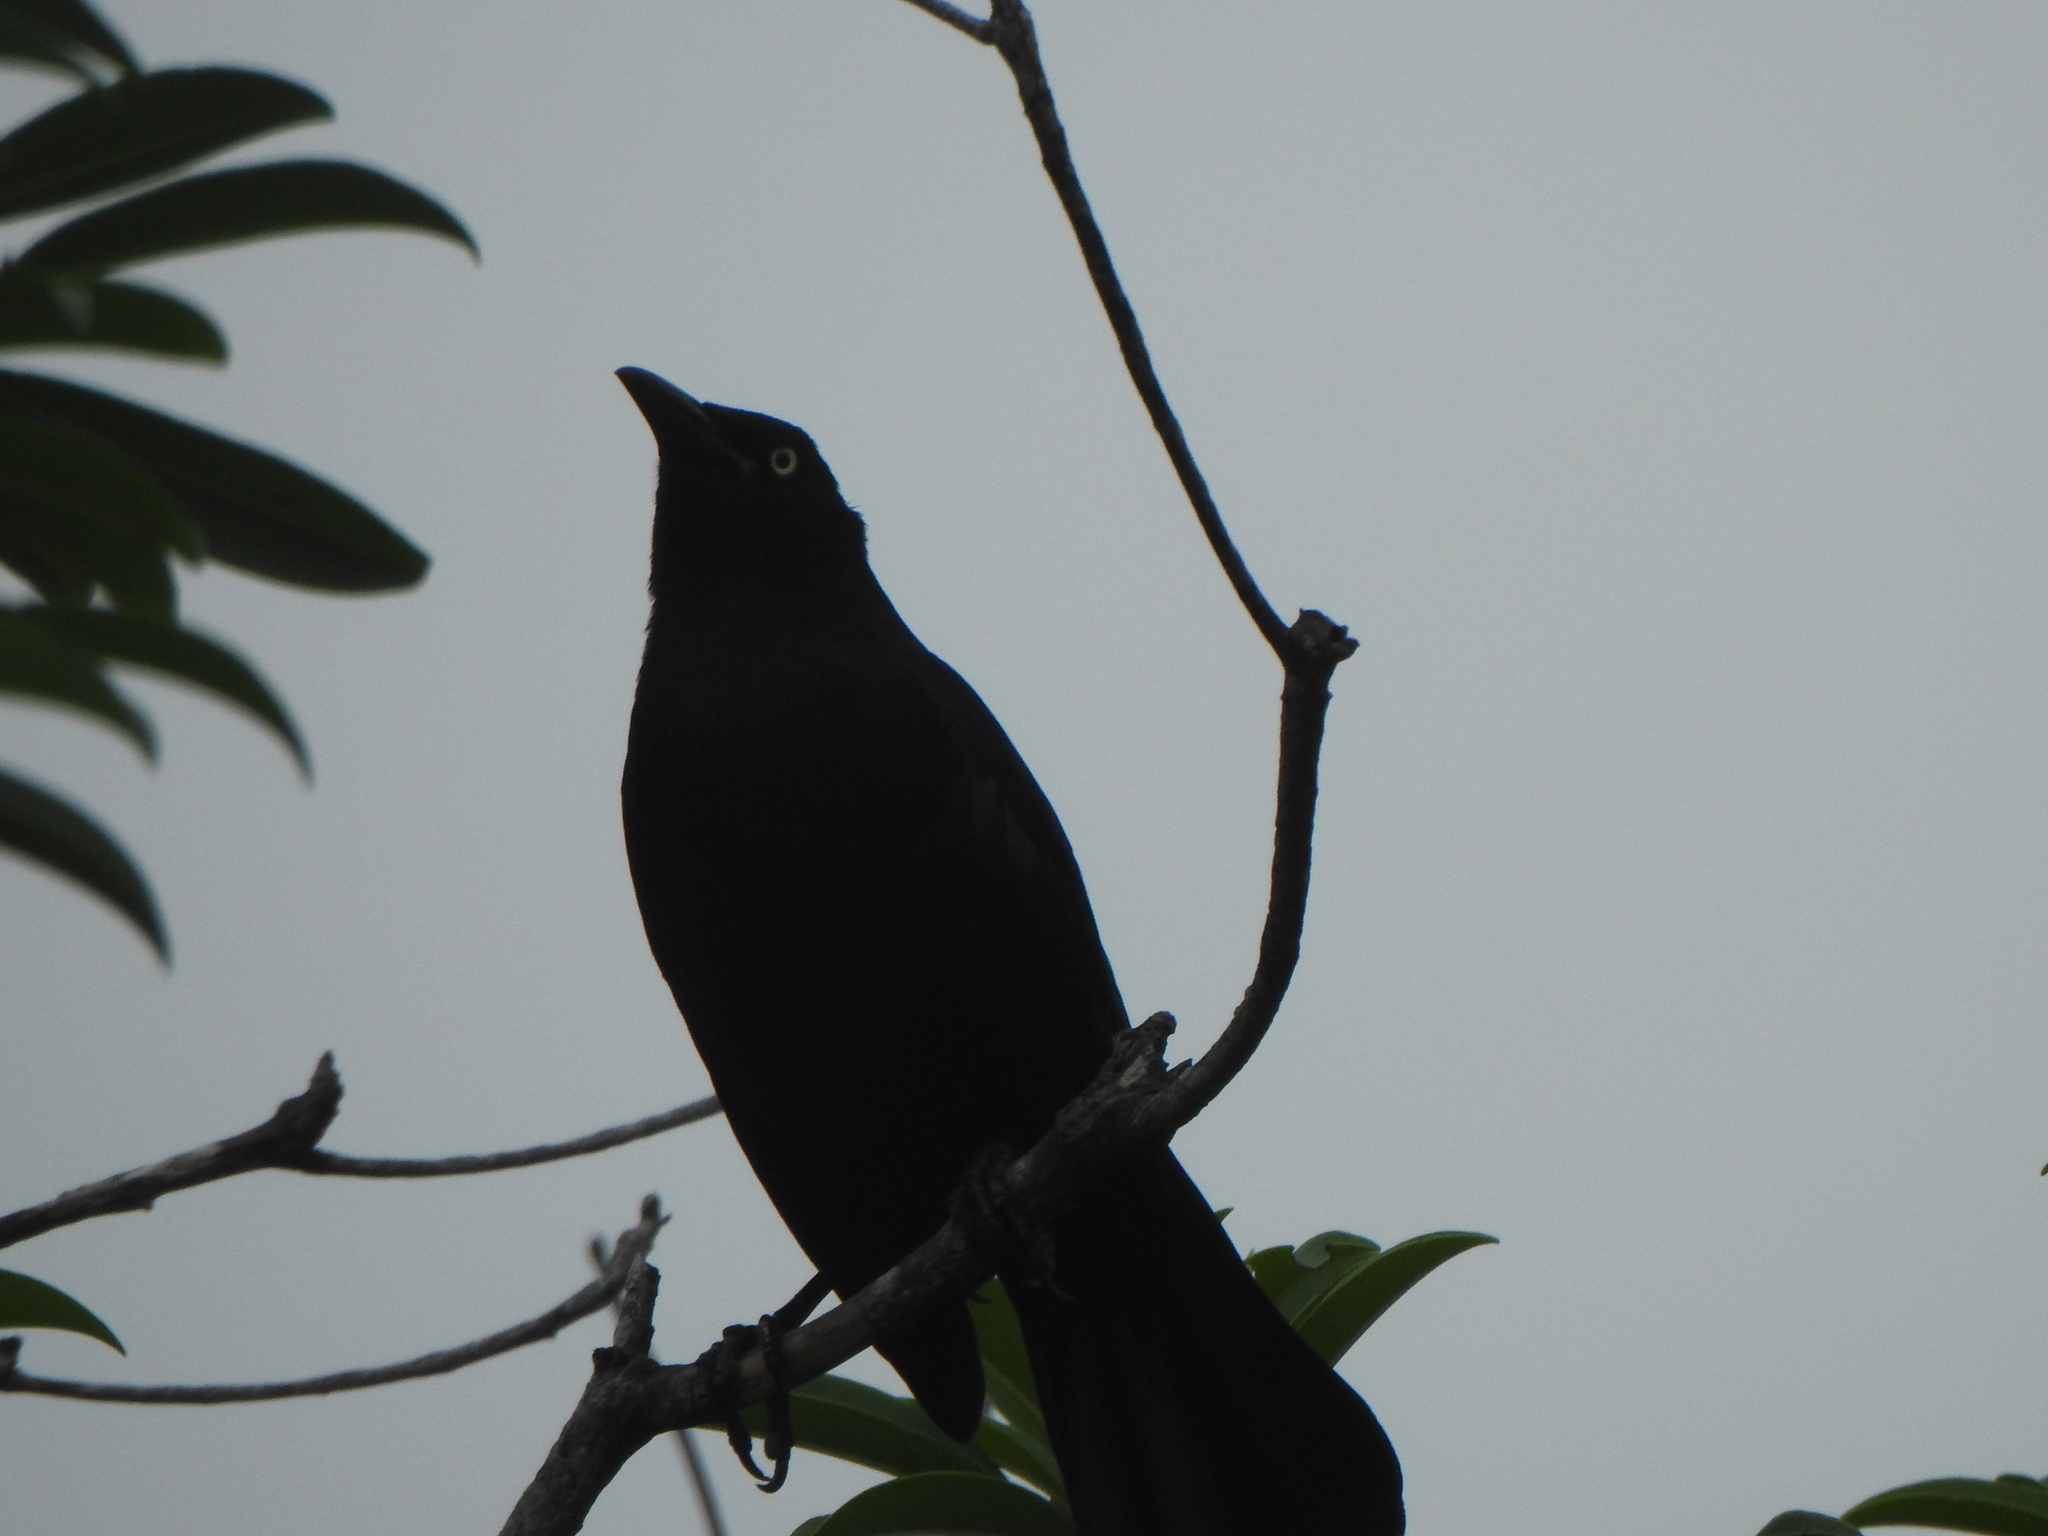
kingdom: Animalia
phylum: Chordata
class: Aves
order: Passeriformes
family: Icteridae
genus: Quiscalus
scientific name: Quiscalus mexicanus
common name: Great-tailed grackle
